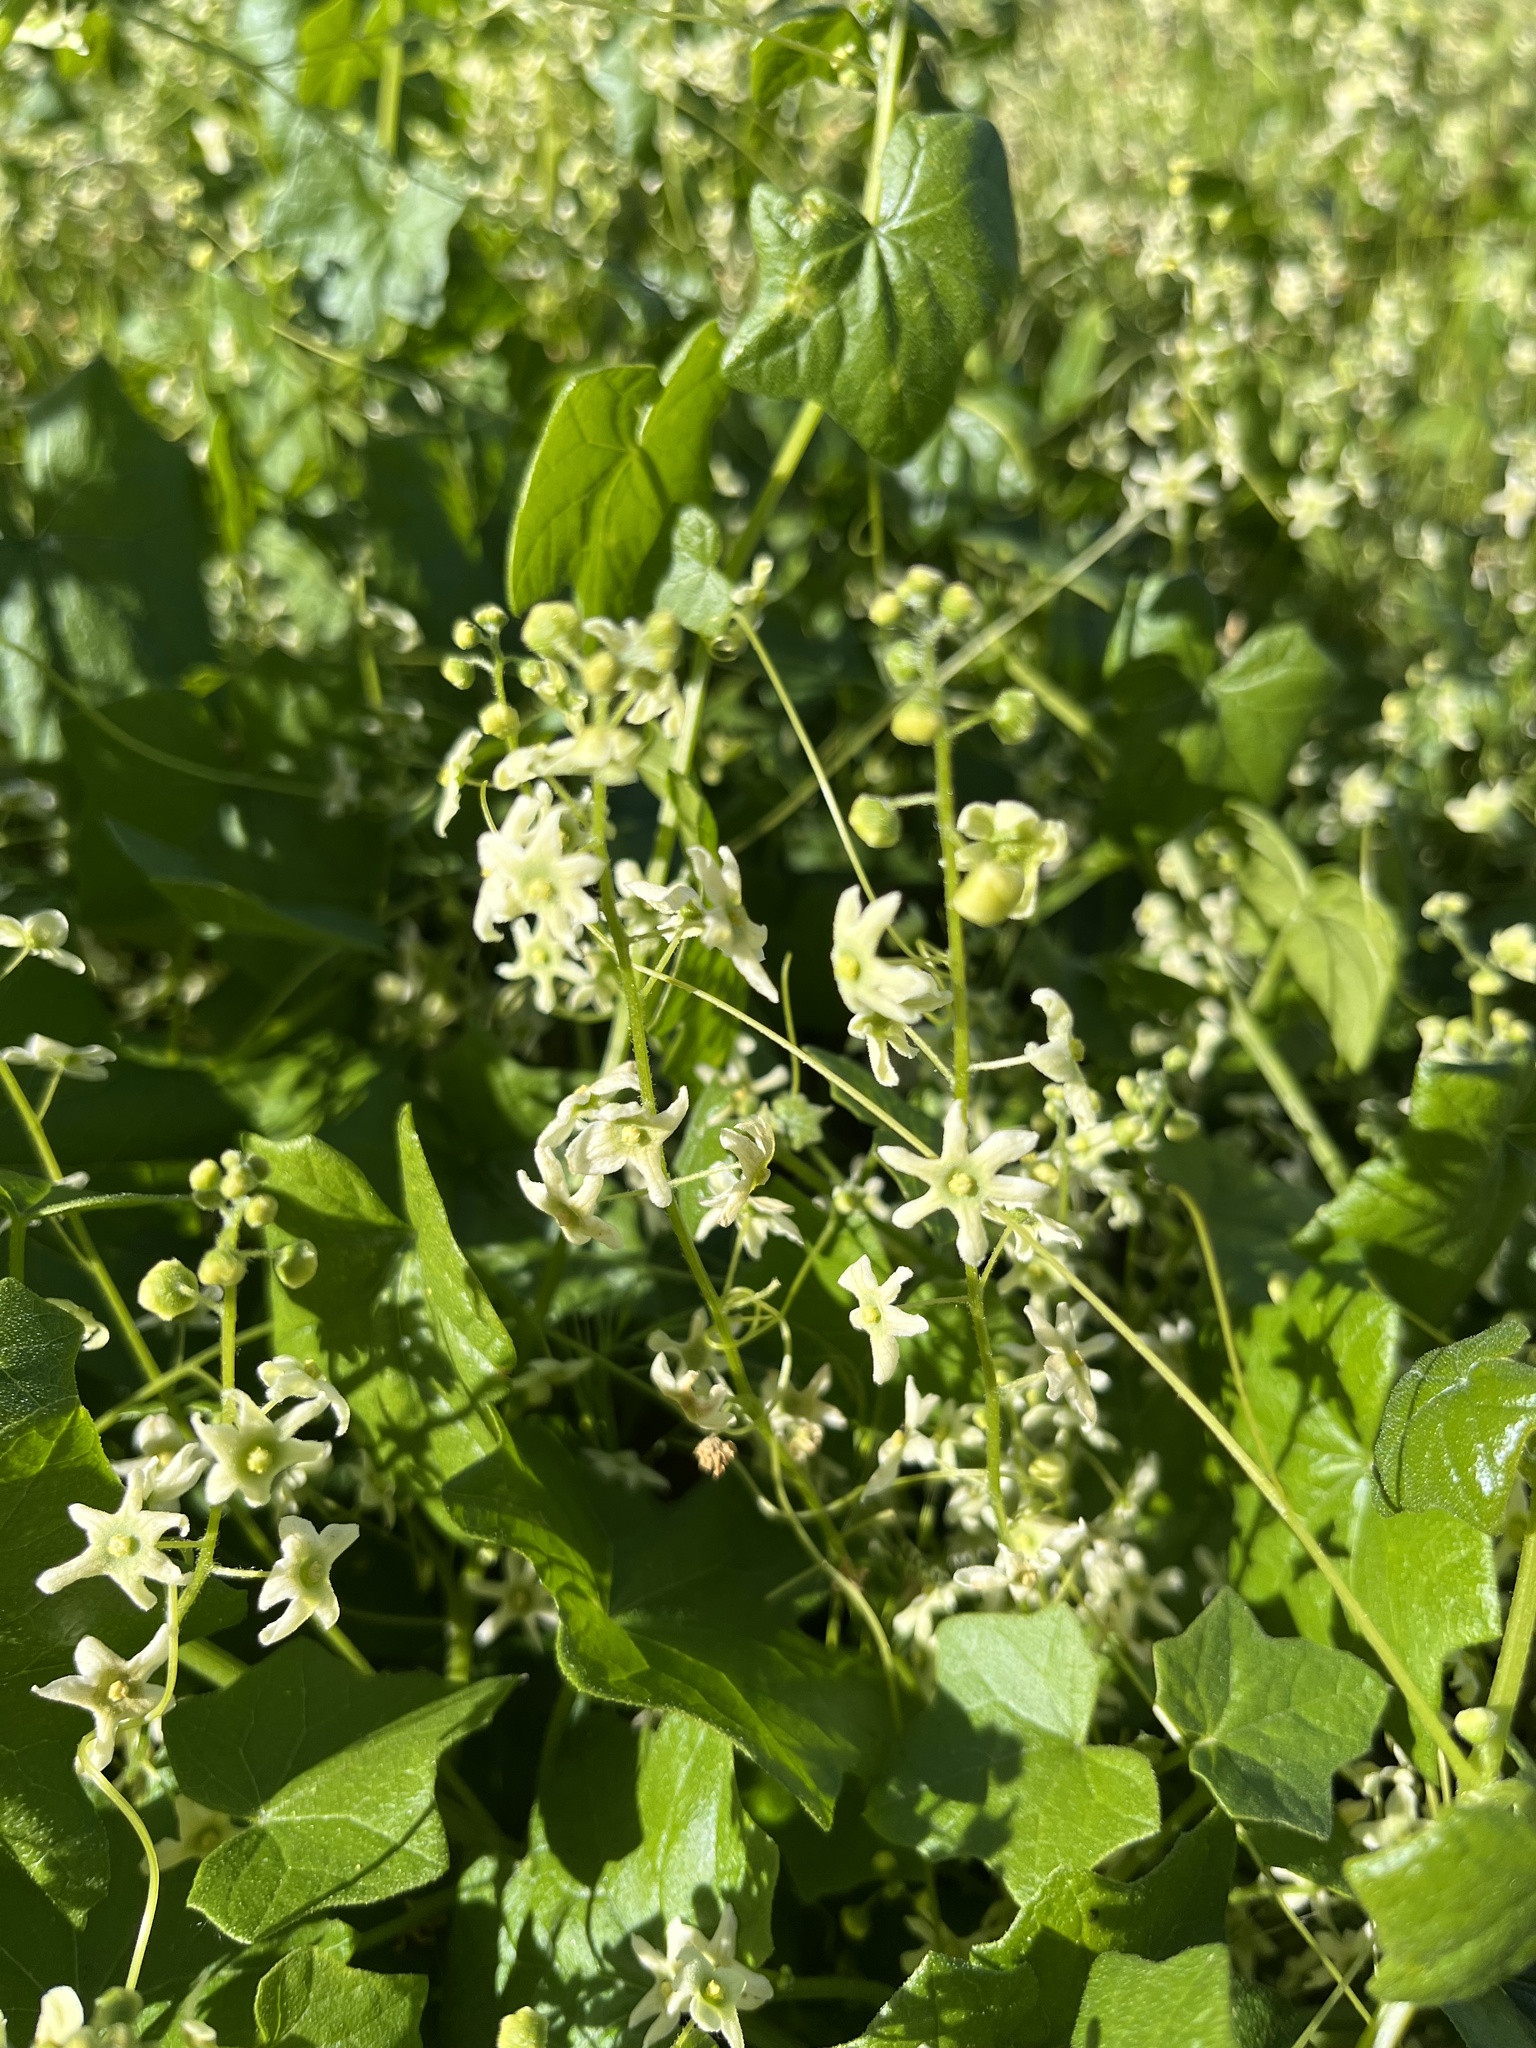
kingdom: Plantae
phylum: Tracheophyta
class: Magnoliopsida
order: Cucurbitales
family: Cucurbitaceae
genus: Marah
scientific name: Marah fabacea
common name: California manroot
